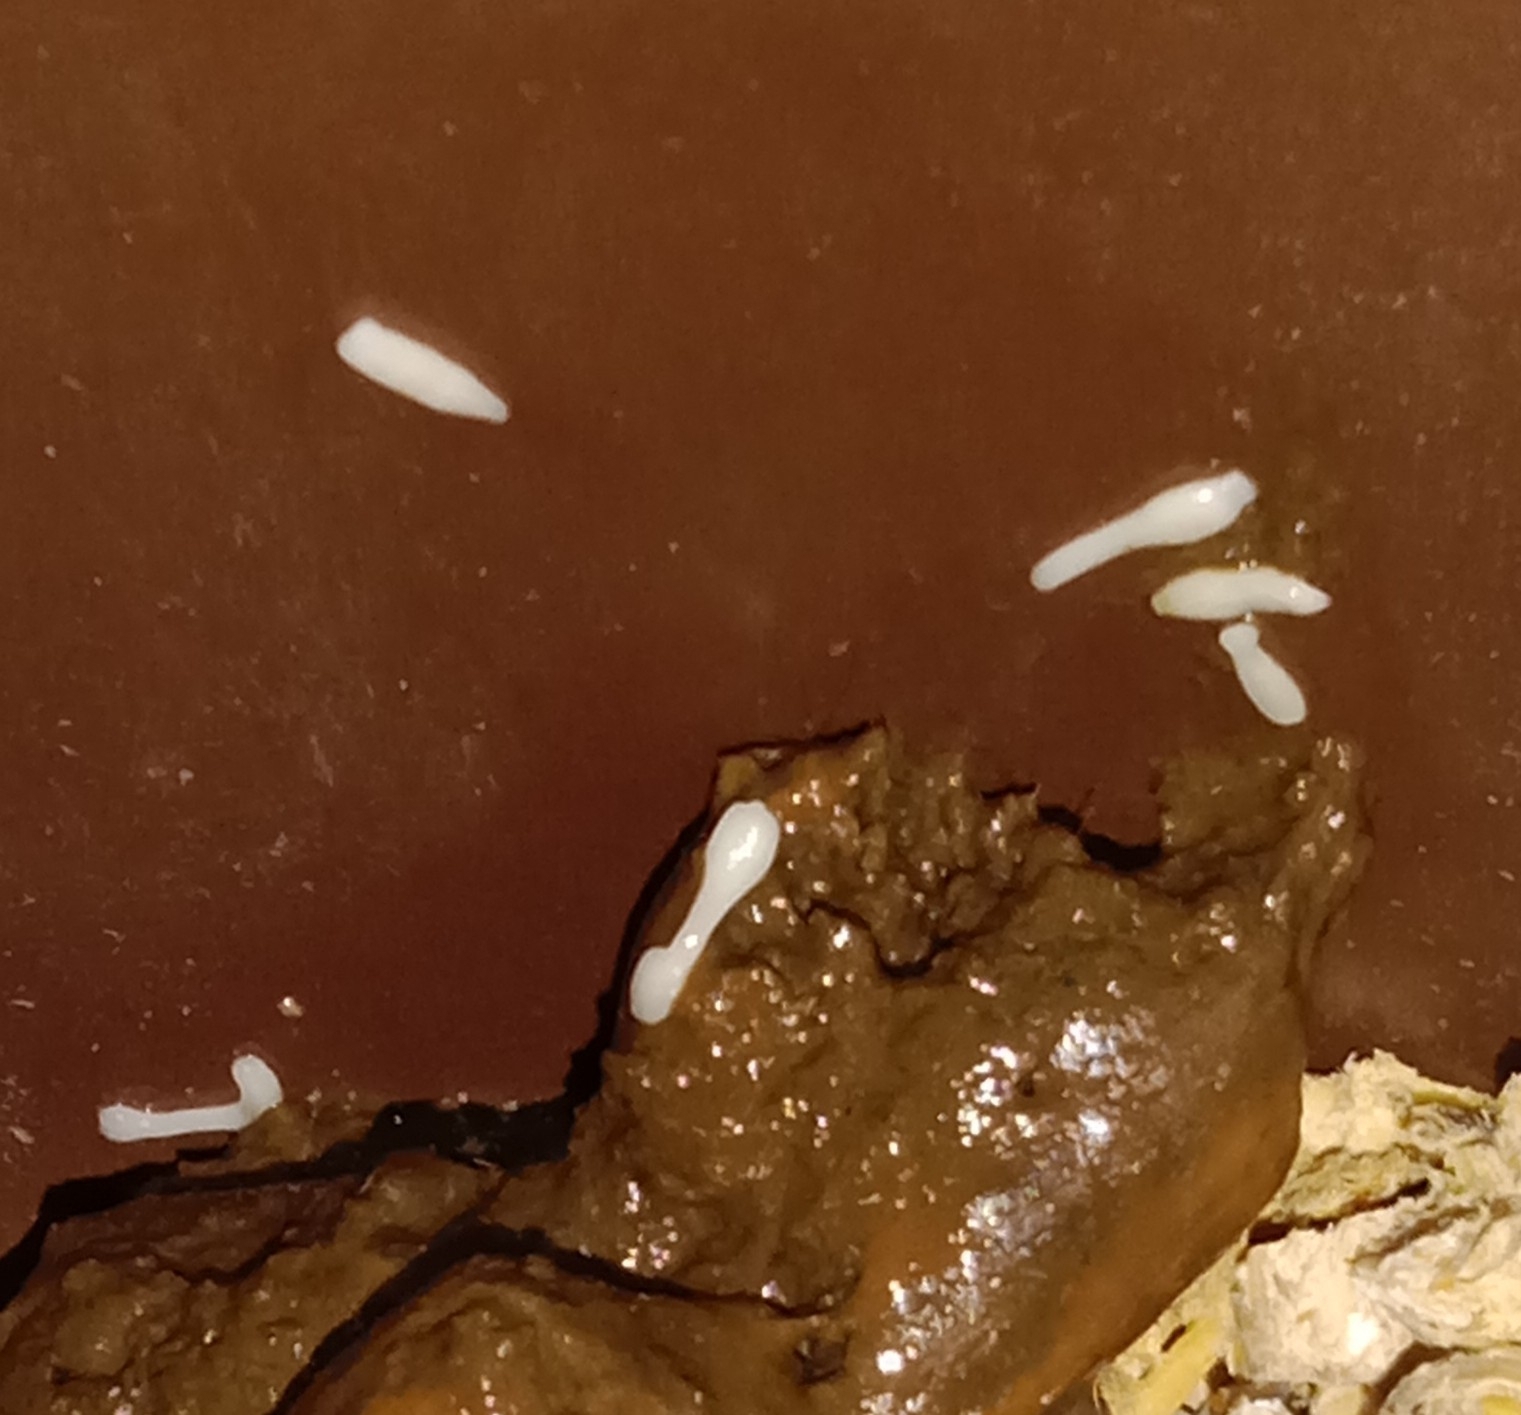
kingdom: Animalia
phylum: Platyhelminthes
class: Cestoda
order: Cyclophyllidea
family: Dipylidiidae
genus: Dipylidium
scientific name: Dipylidium caninum
